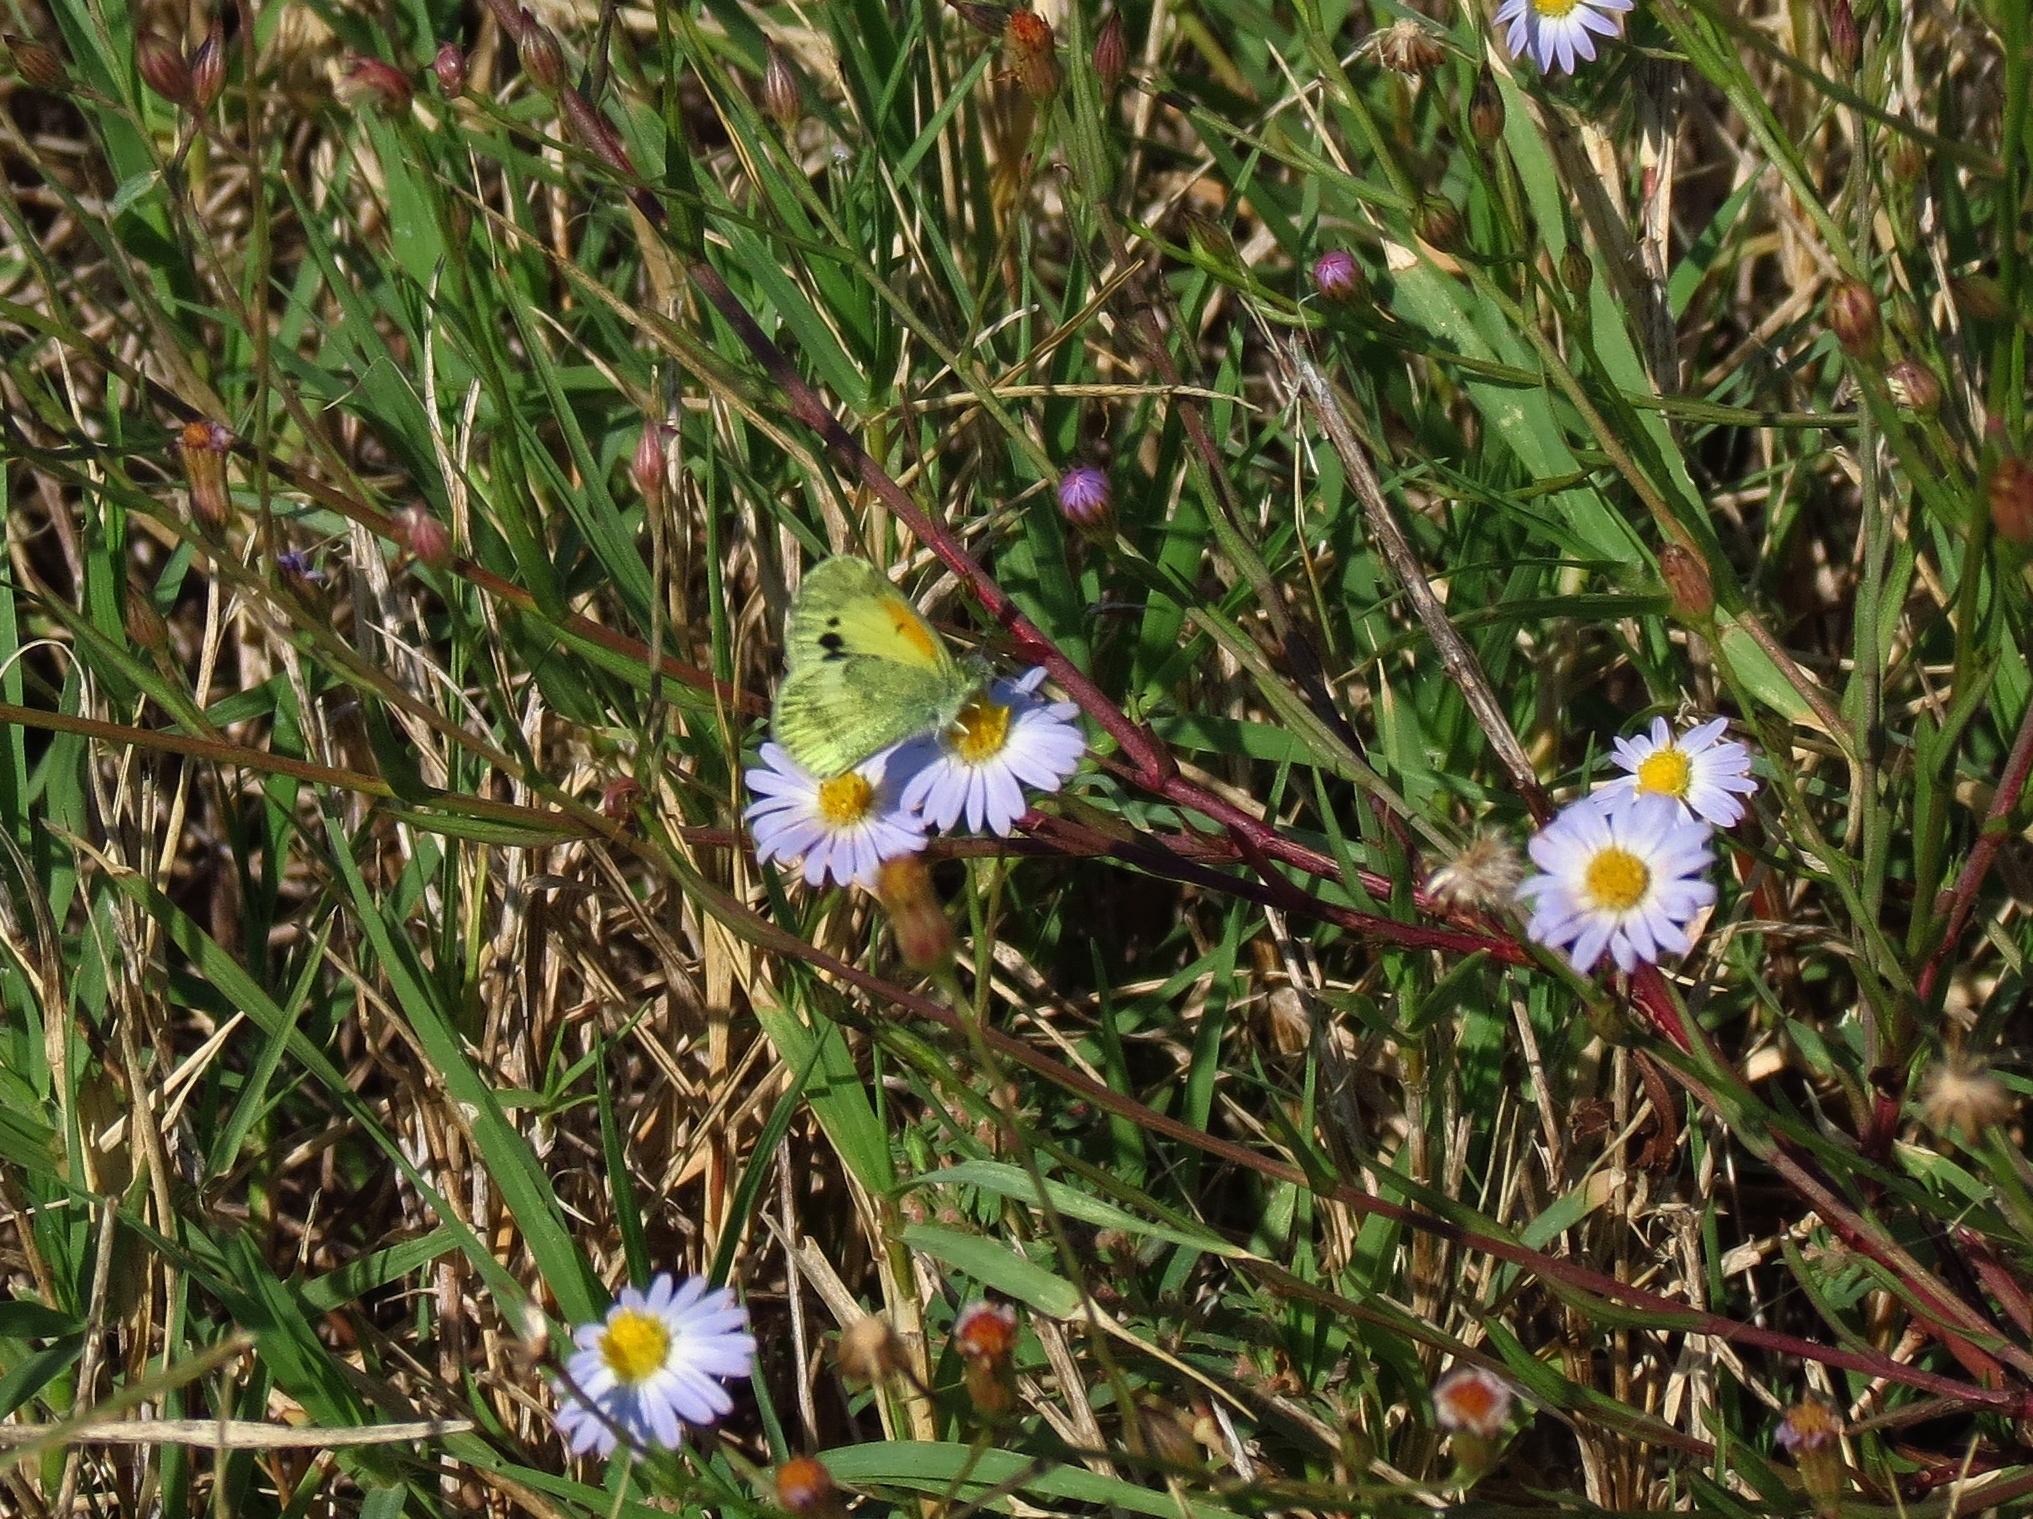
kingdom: Animalia
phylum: Arthropoda
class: Insecta
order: Lepidoptera
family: Pieridae
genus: Nathalis
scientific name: Nathalis iole
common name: Dainty sulphur
